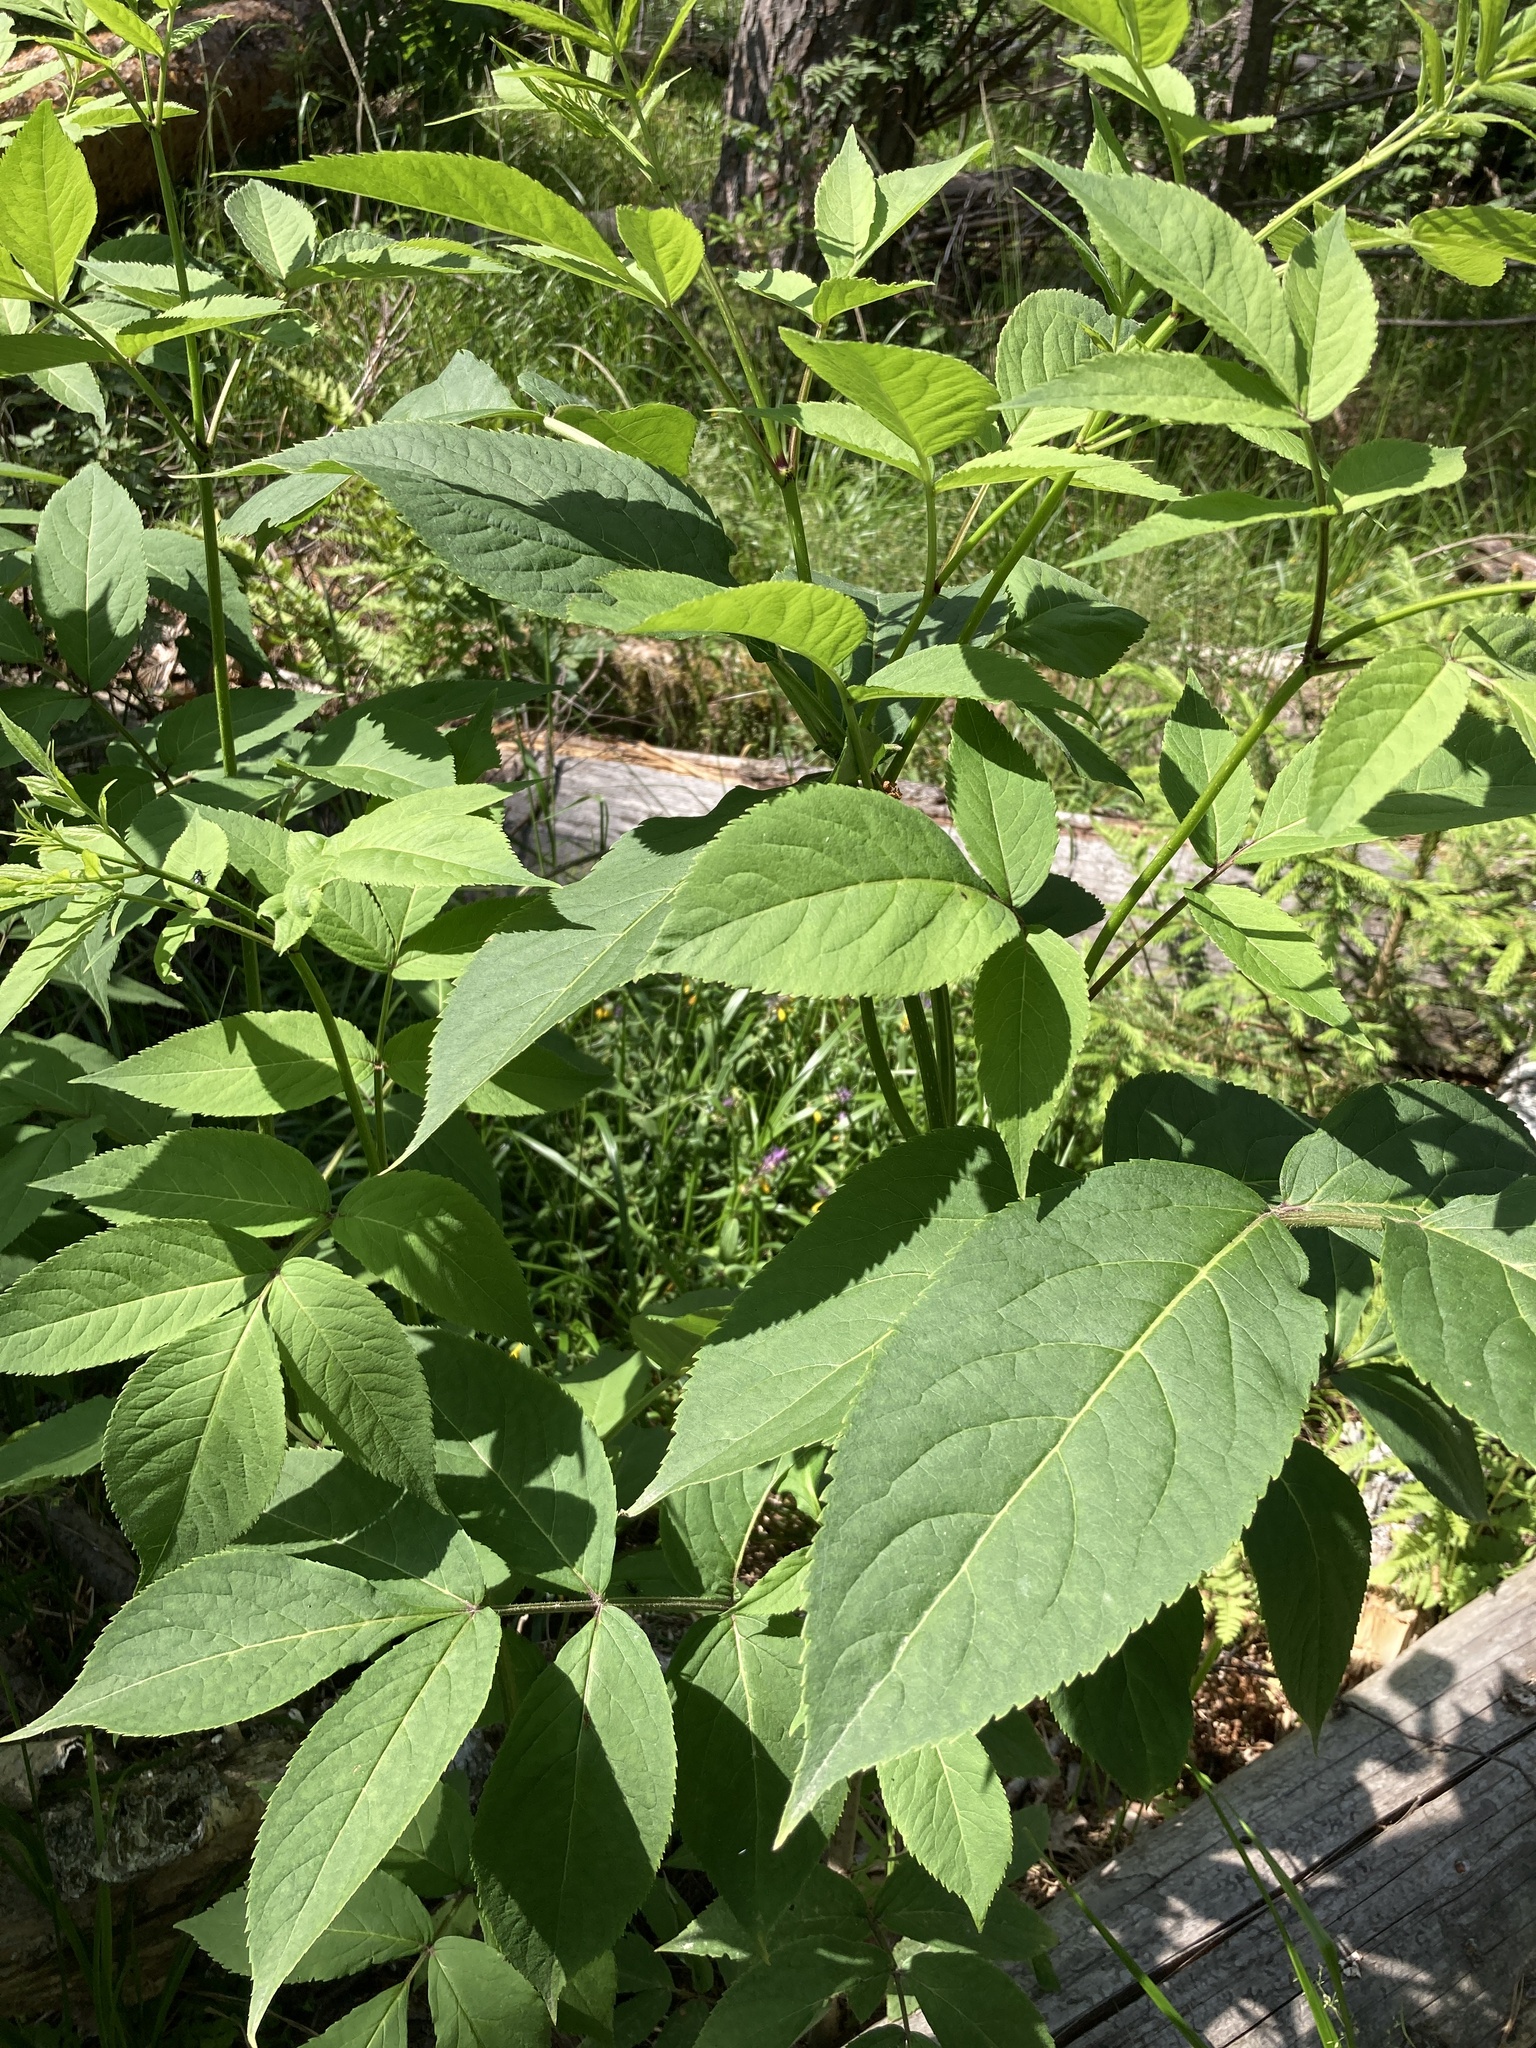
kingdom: Plantae
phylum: Tracheophyta
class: Magnoliopsida
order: Dipsacales
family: Viburnaceae
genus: Sambucus
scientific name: Sambucus racemosa
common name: Red-berried elder
